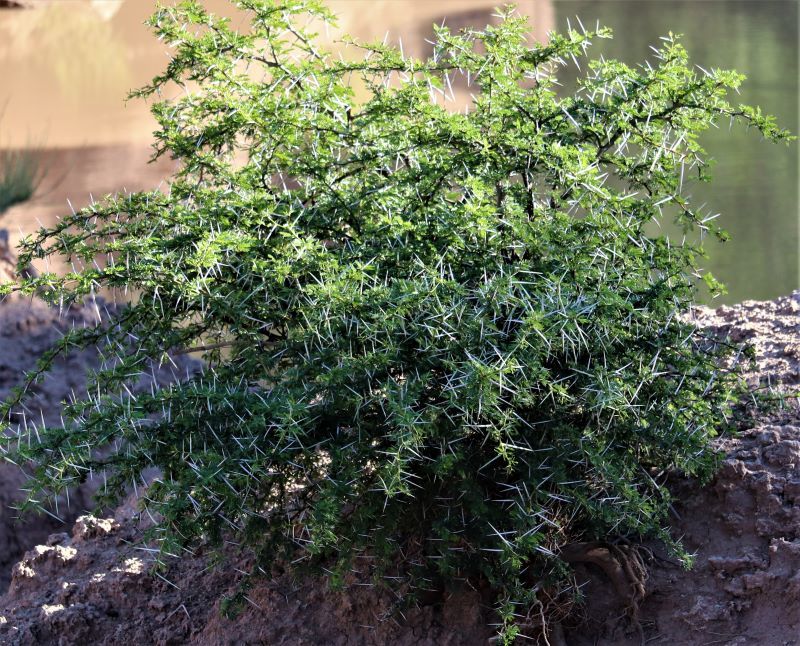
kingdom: Plantae
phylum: Tracheophyta
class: Magnoliopsida
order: Fabales
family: Fabaceae
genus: Vachellia
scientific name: Vachellia karroo
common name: Sweet thorn
